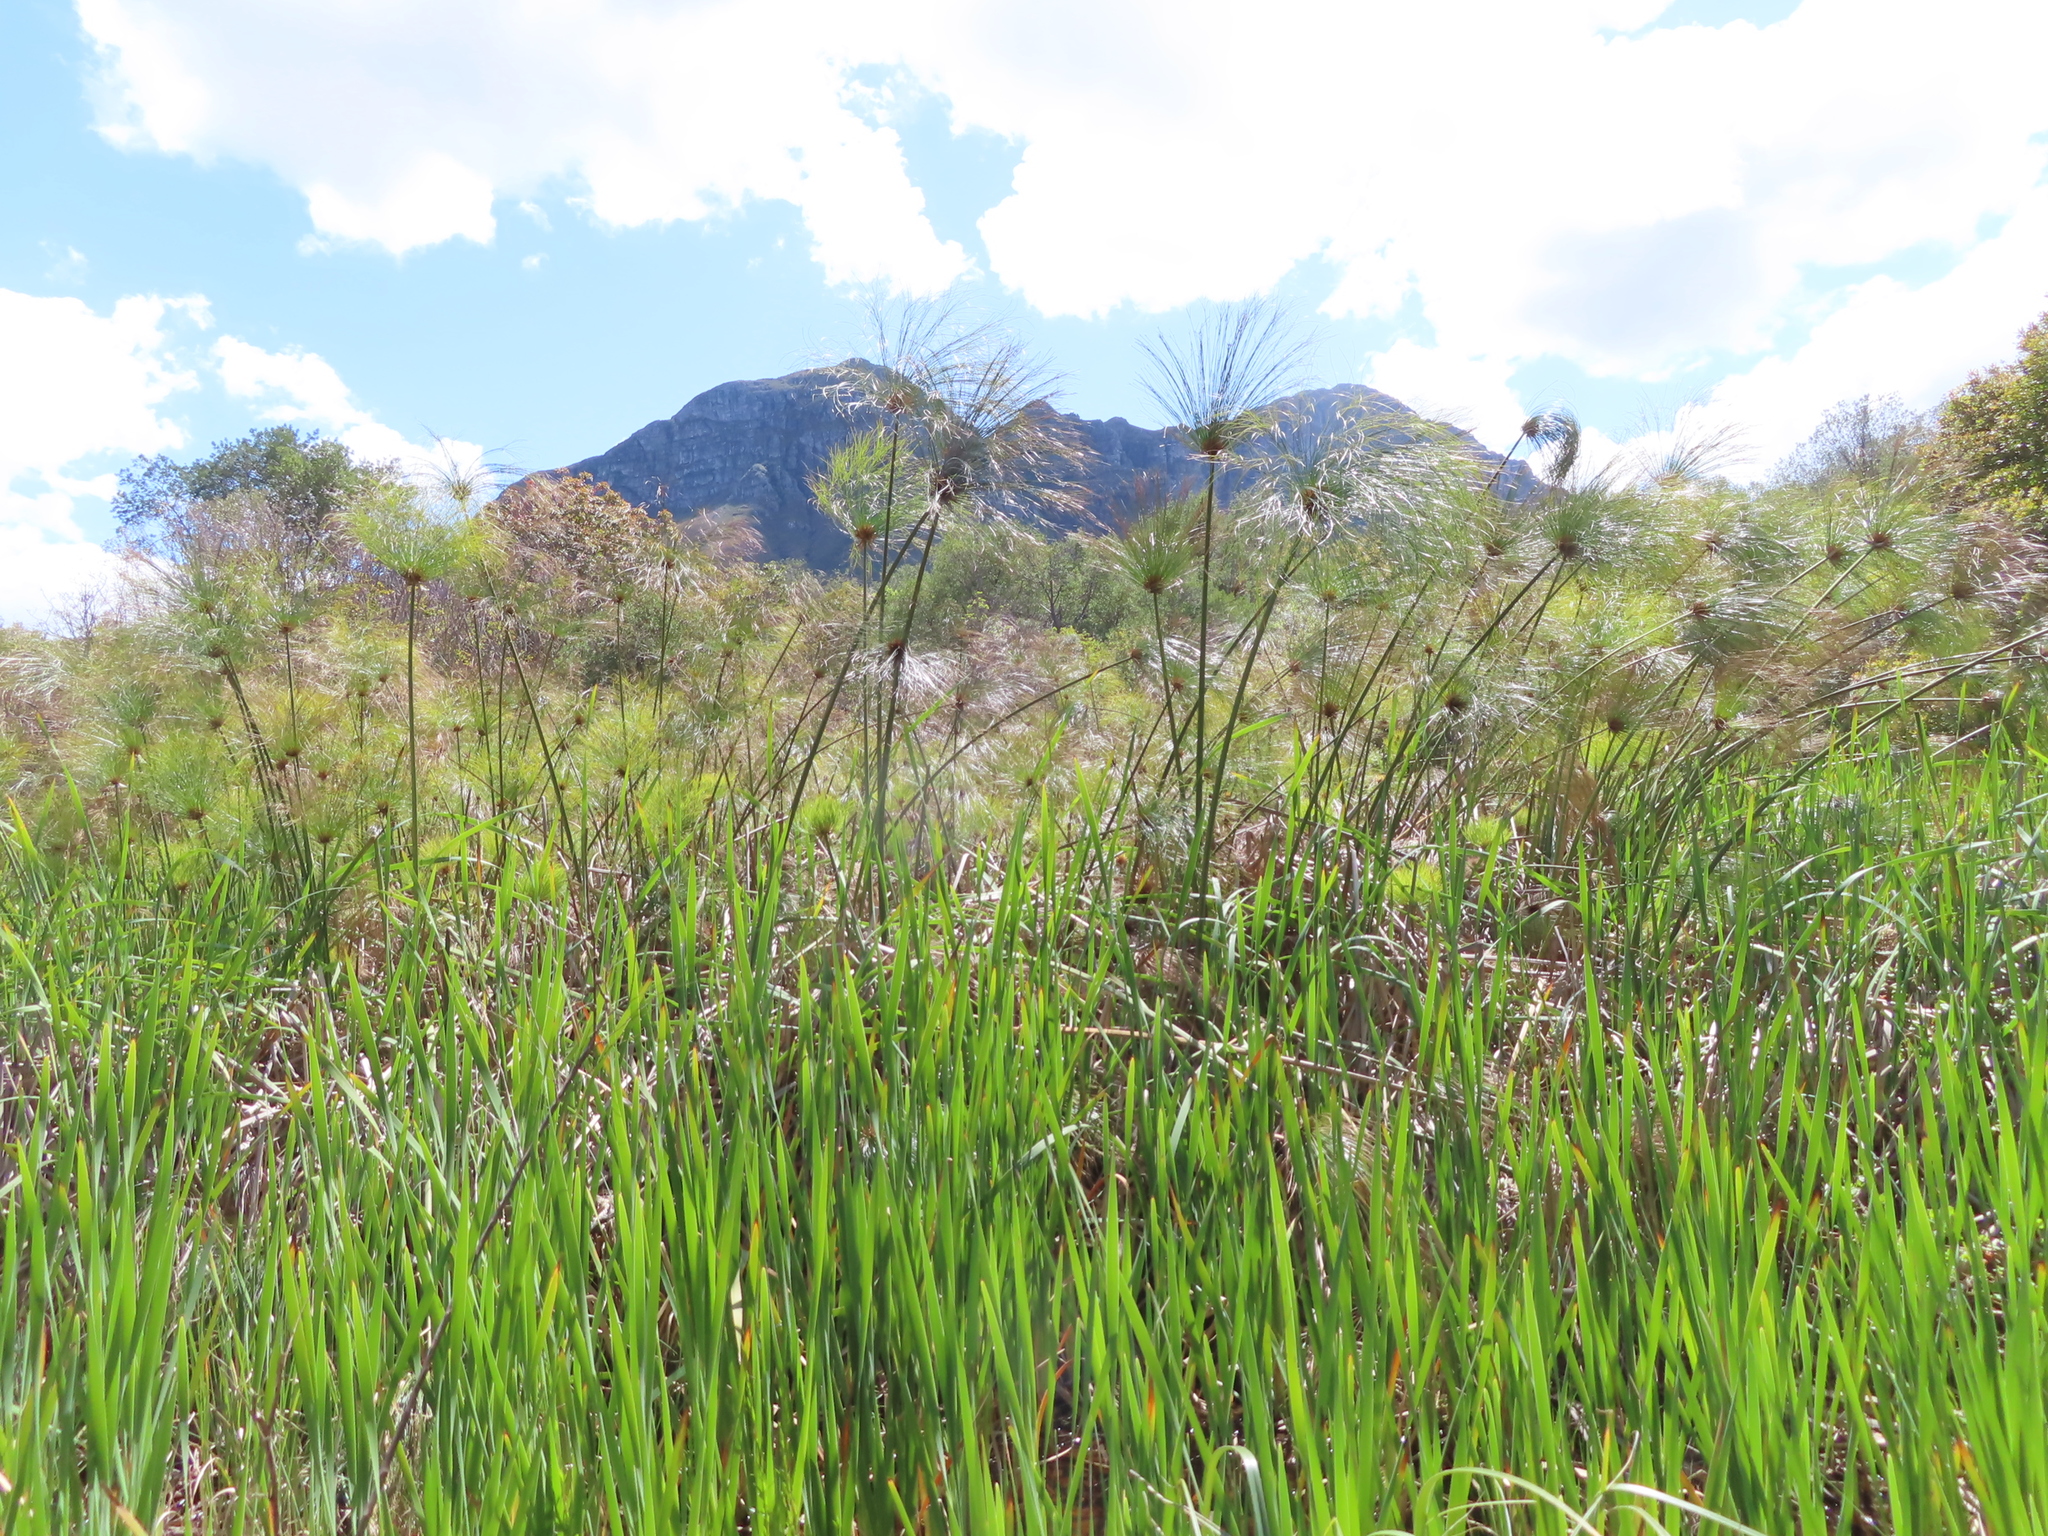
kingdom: Plantae
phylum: Tracheophyta
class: Liliopsida
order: Poales
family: Cyperaceae
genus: Cyperus
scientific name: Cyperus papyrus
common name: Papyrus
